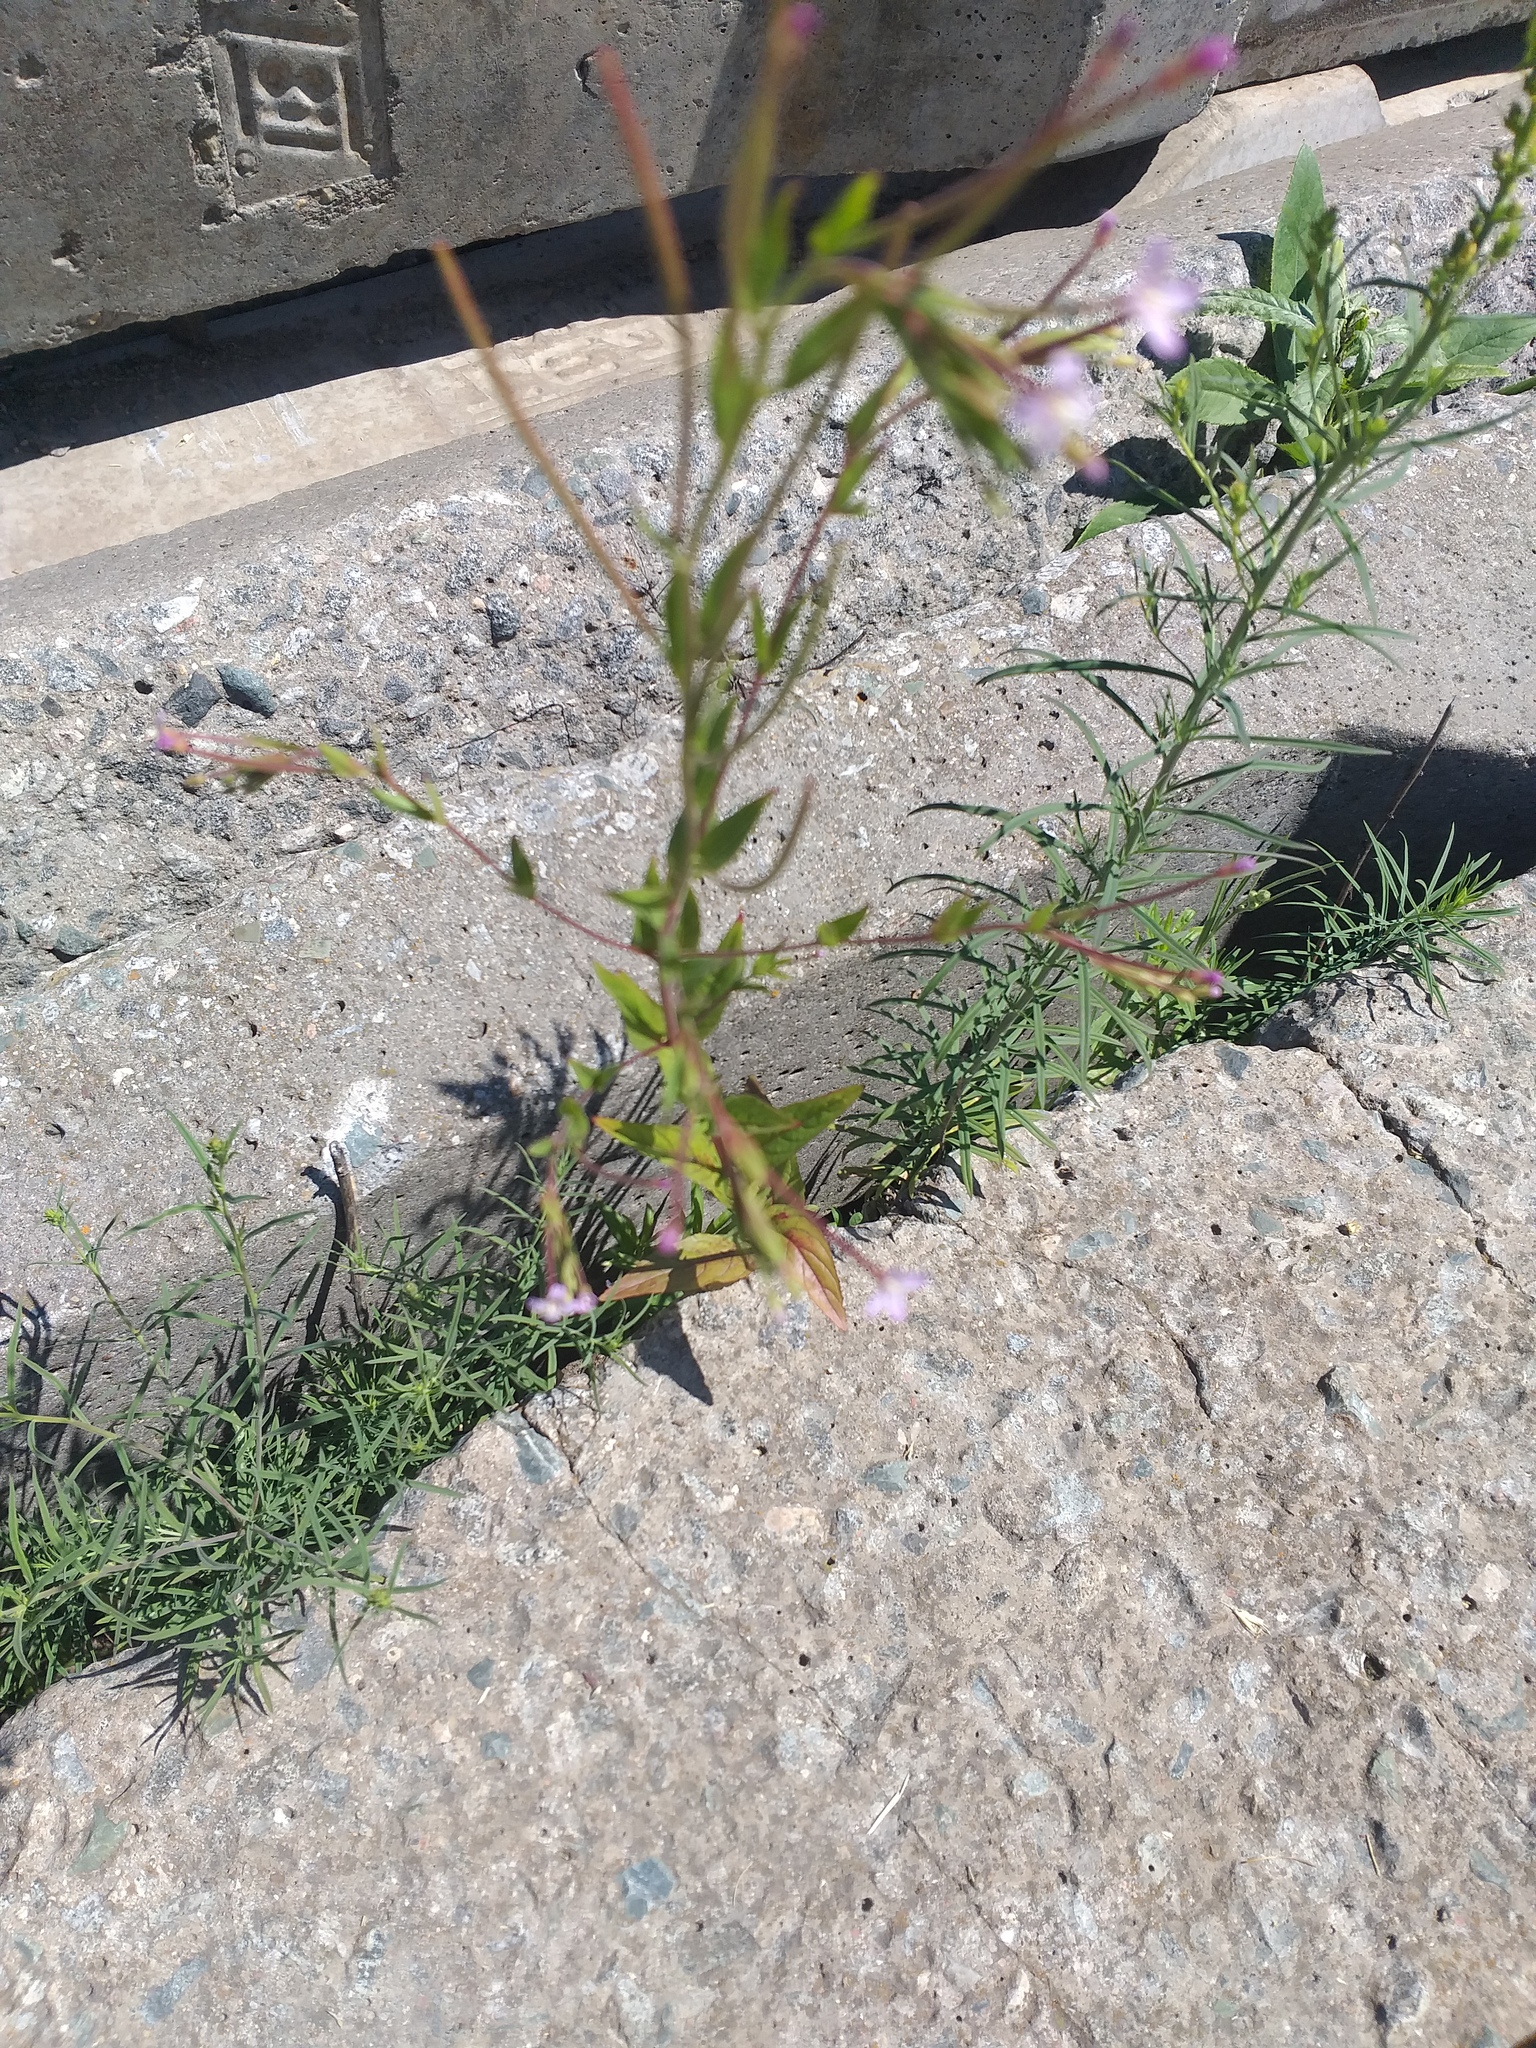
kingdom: Plantae
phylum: Tracheophyta
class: Magnoliopsida
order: Myrtales
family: Onagraceae
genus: Epilobium
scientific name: Epilobium ciliatum
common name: American willowherb
